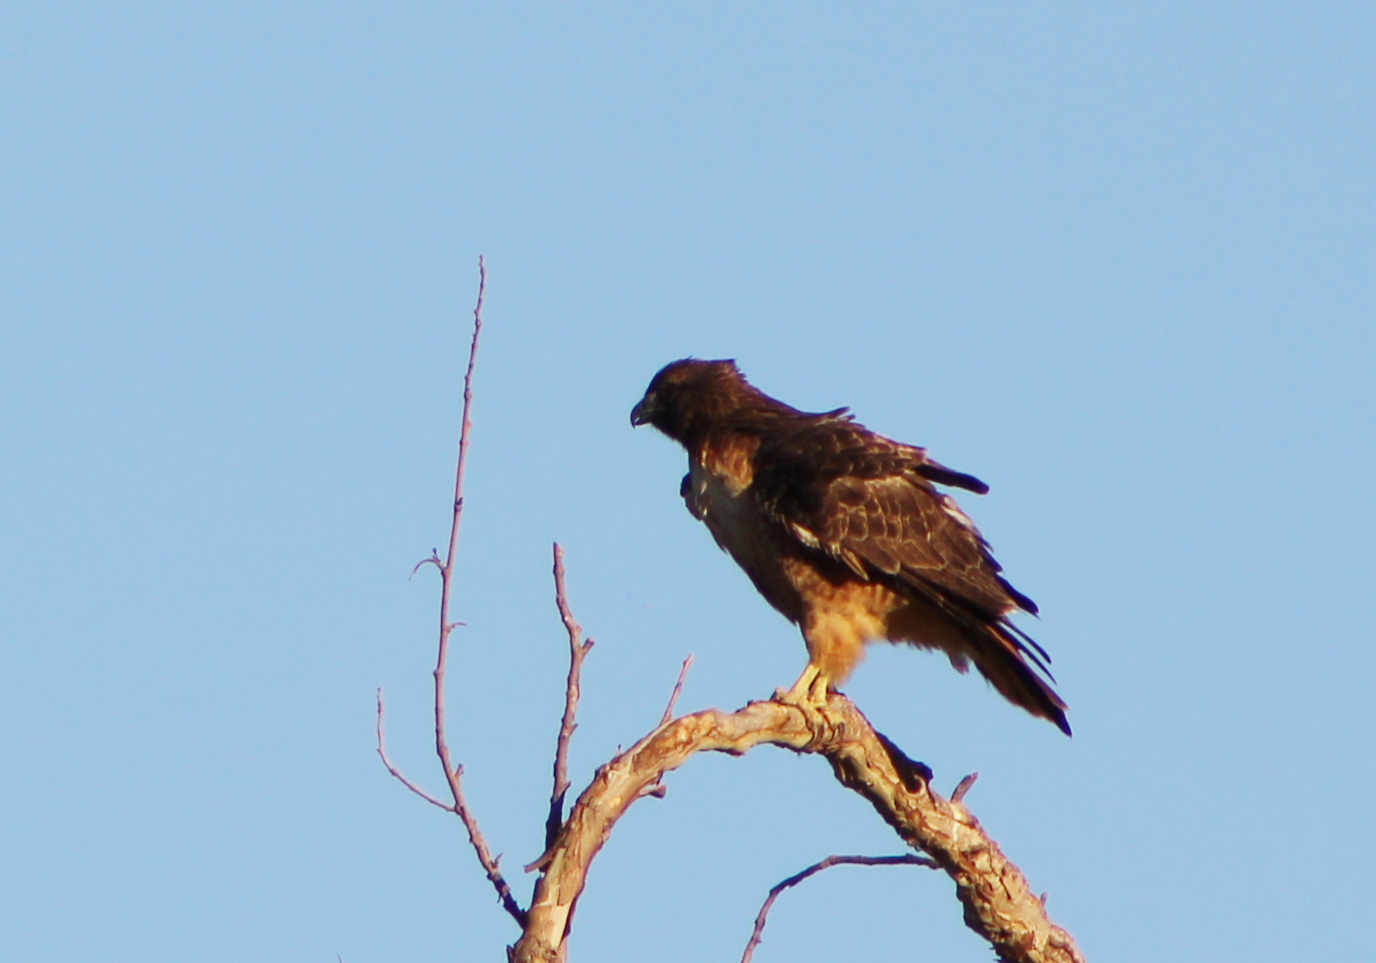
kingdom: Animalia
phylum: Chordata
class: Aves
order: Accipitriformes
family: Accipitridae
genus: Buteo
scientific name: Buteo jamaicensis
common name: Red-tailed hawk
